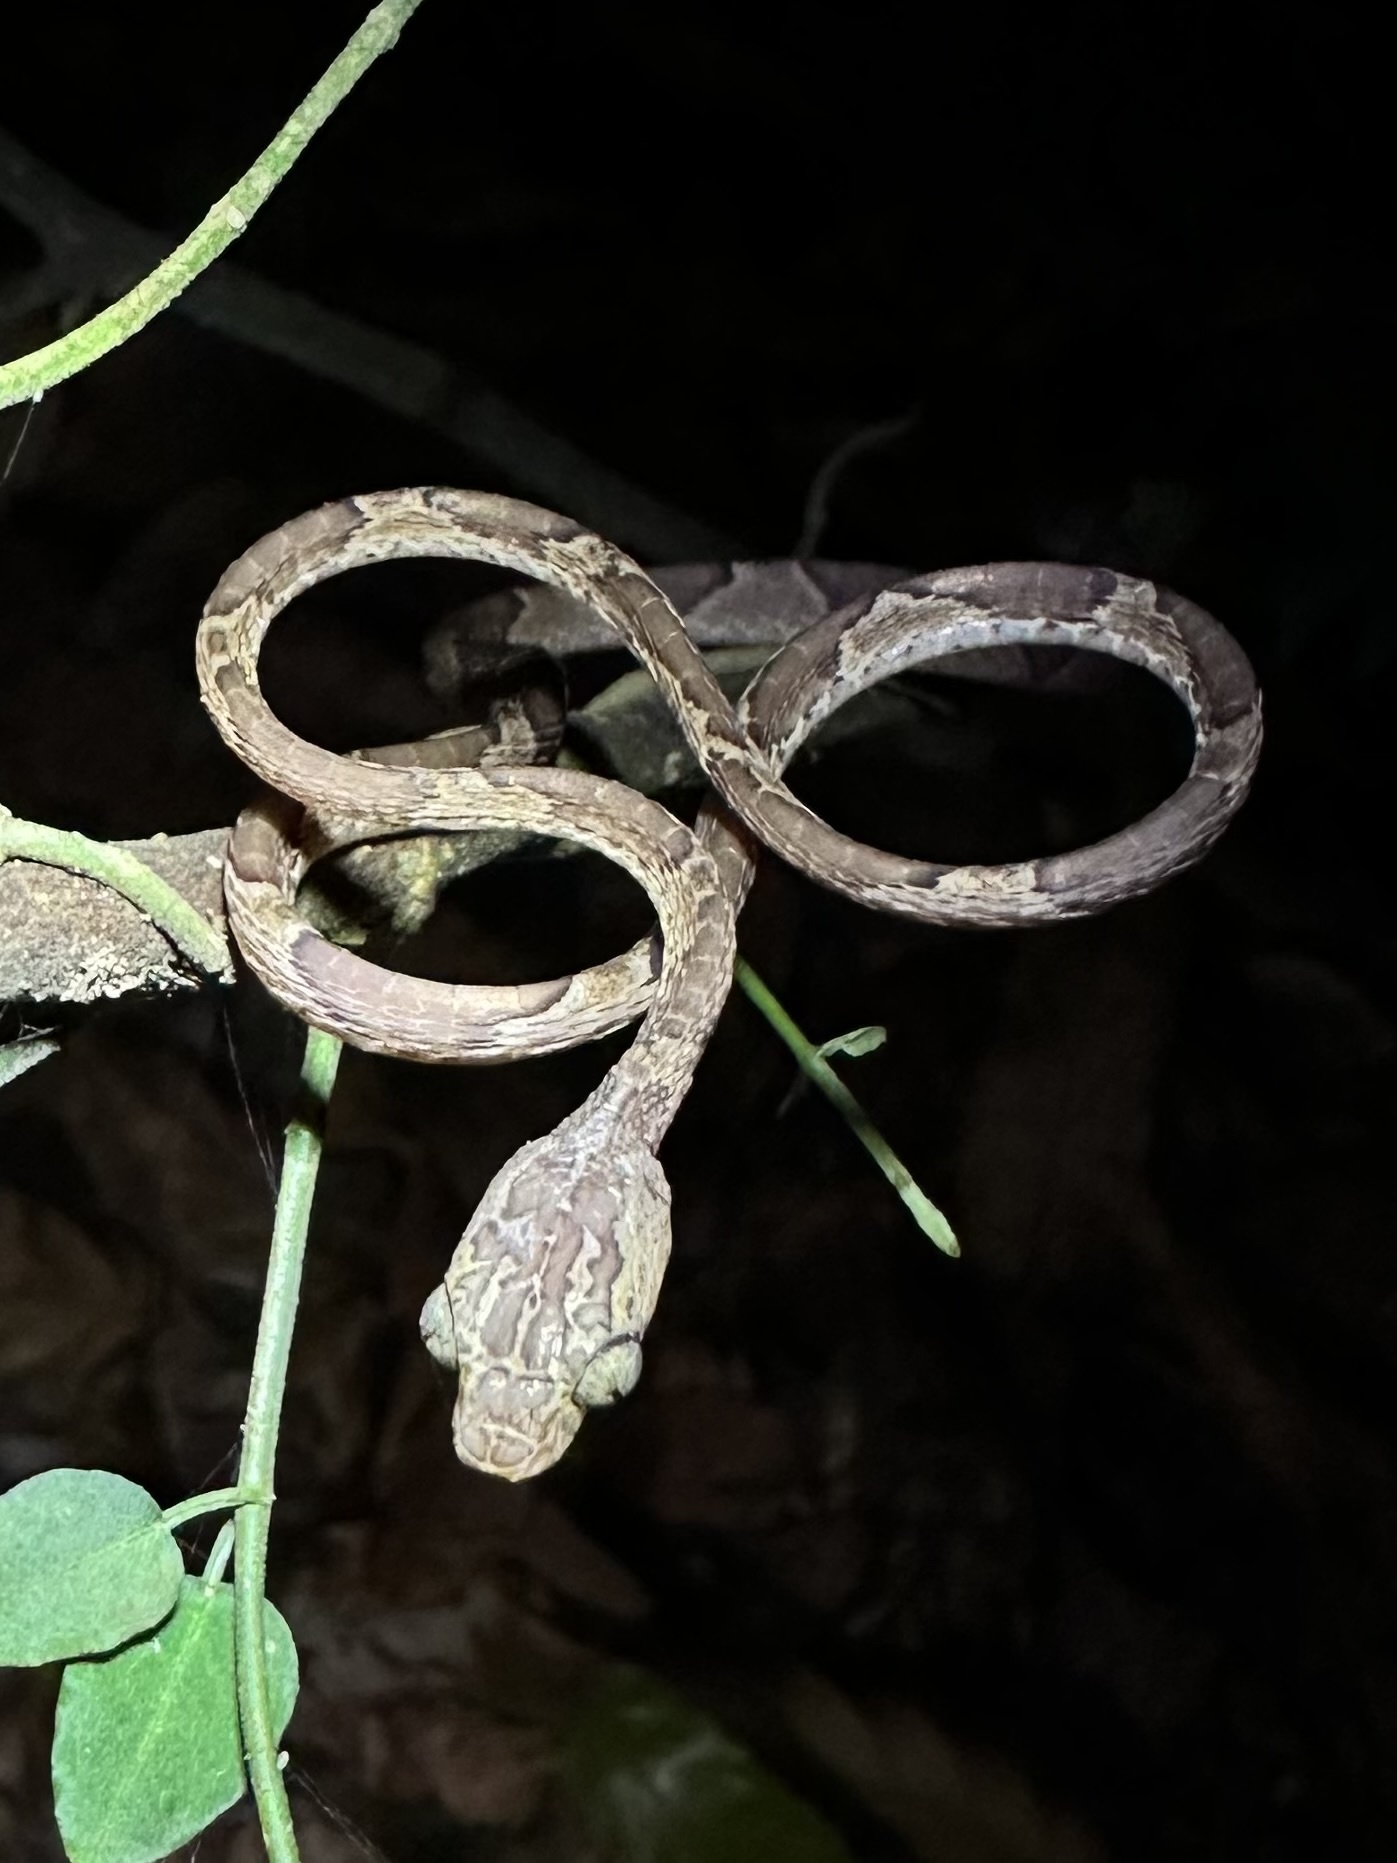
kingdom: Animalia
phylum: Chordata
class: Squamata
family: Colubridae
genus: Imantodes
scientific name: Imantodes cenchoa
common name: Blunthead tree snake
